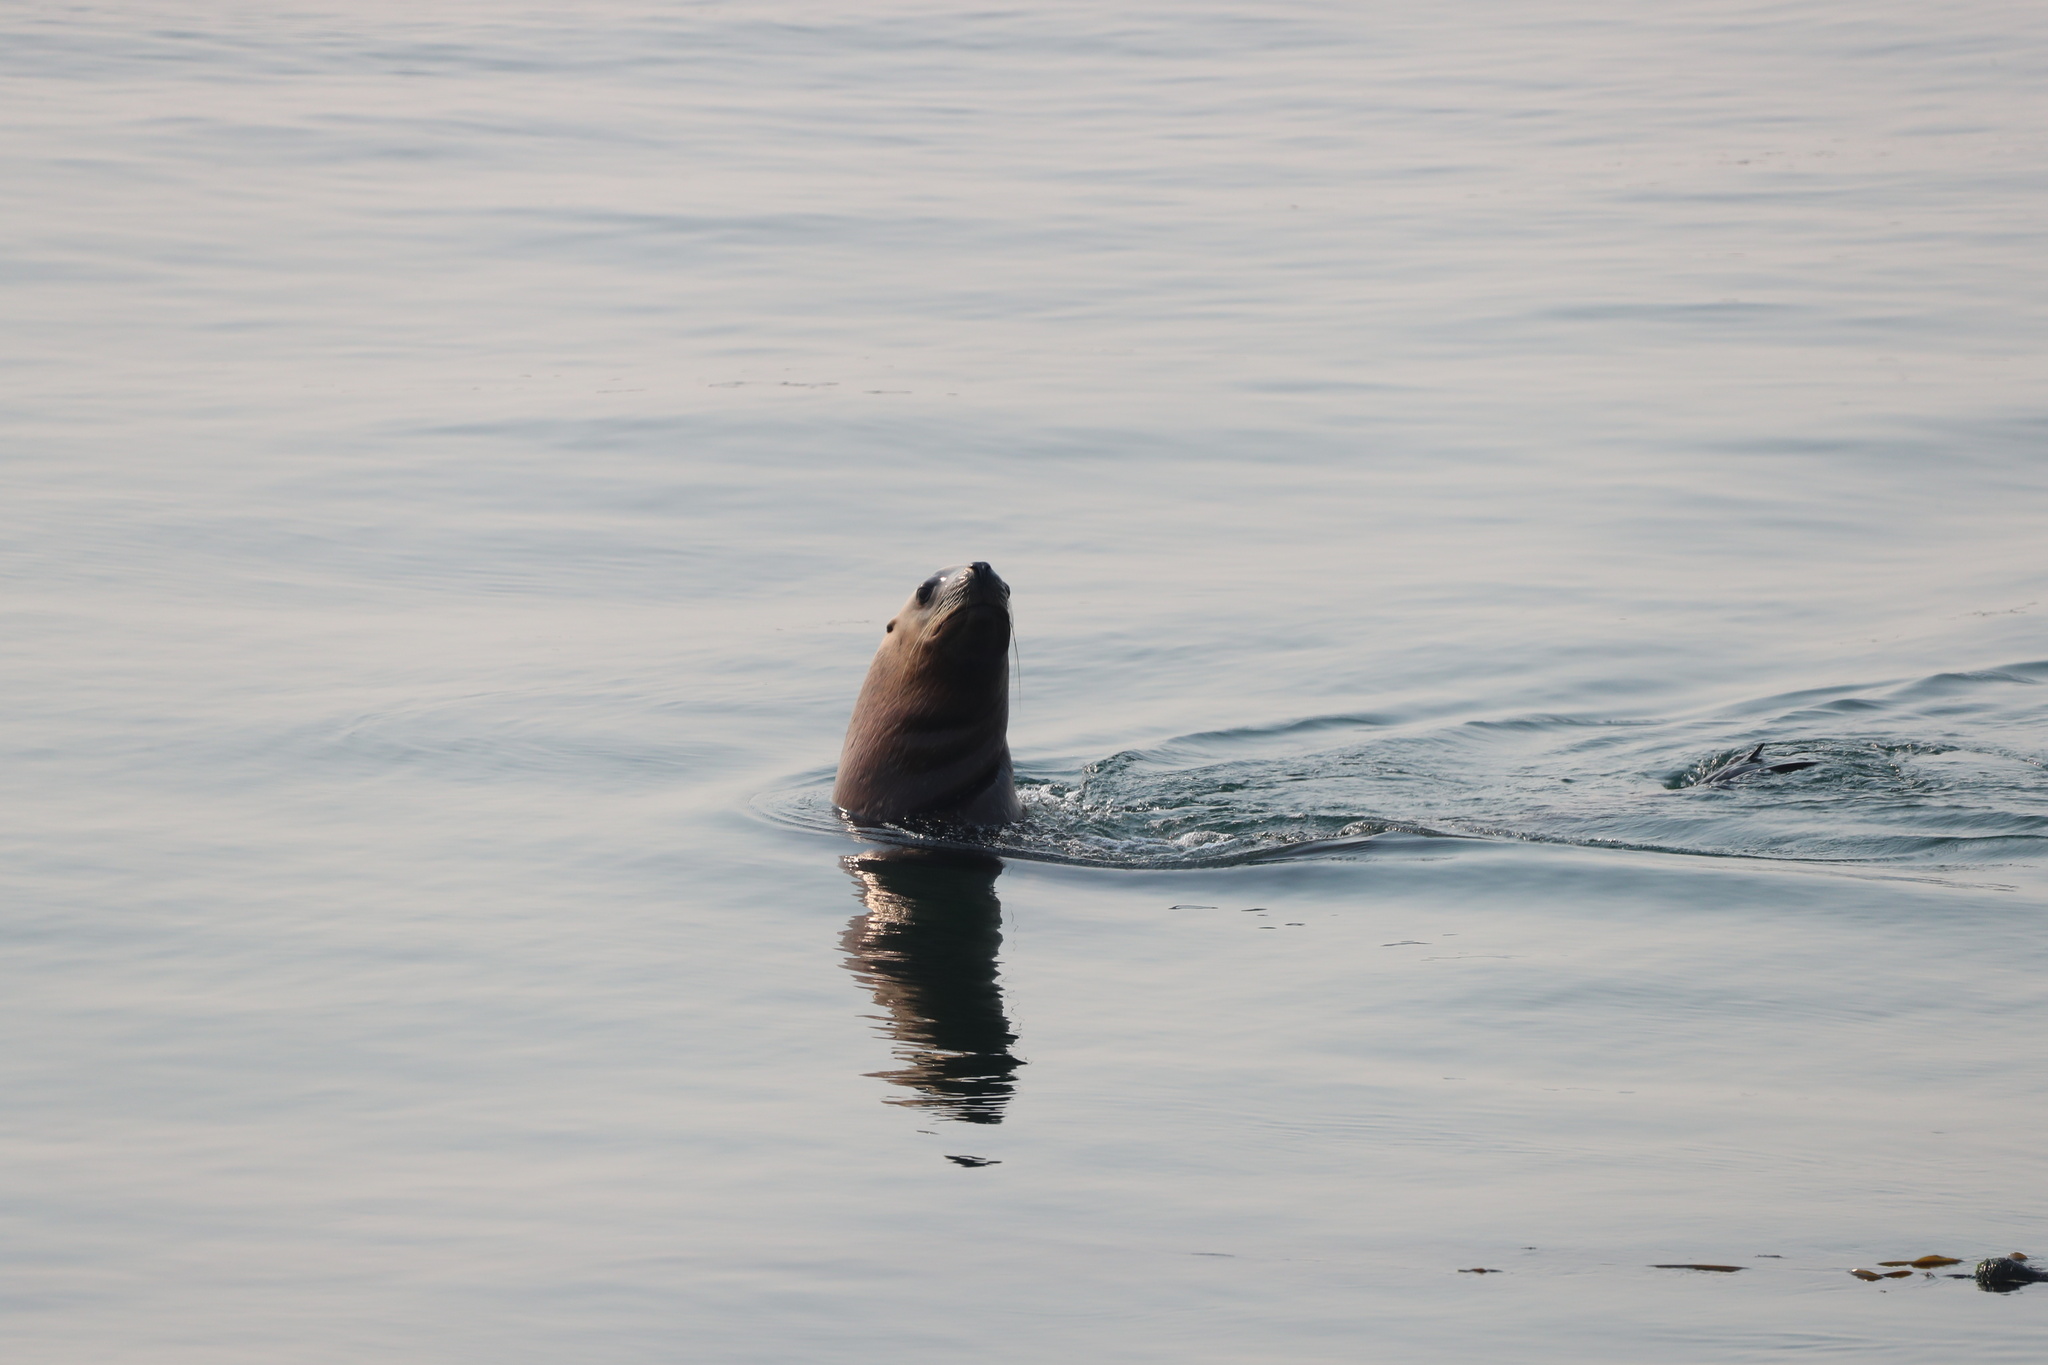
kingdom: Animalia
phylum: Chordata
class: Mammalia
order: Carnivora
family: Otariidae
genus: Eumetopias
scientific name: Eumetopias jubatus
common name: Steller sea lion
